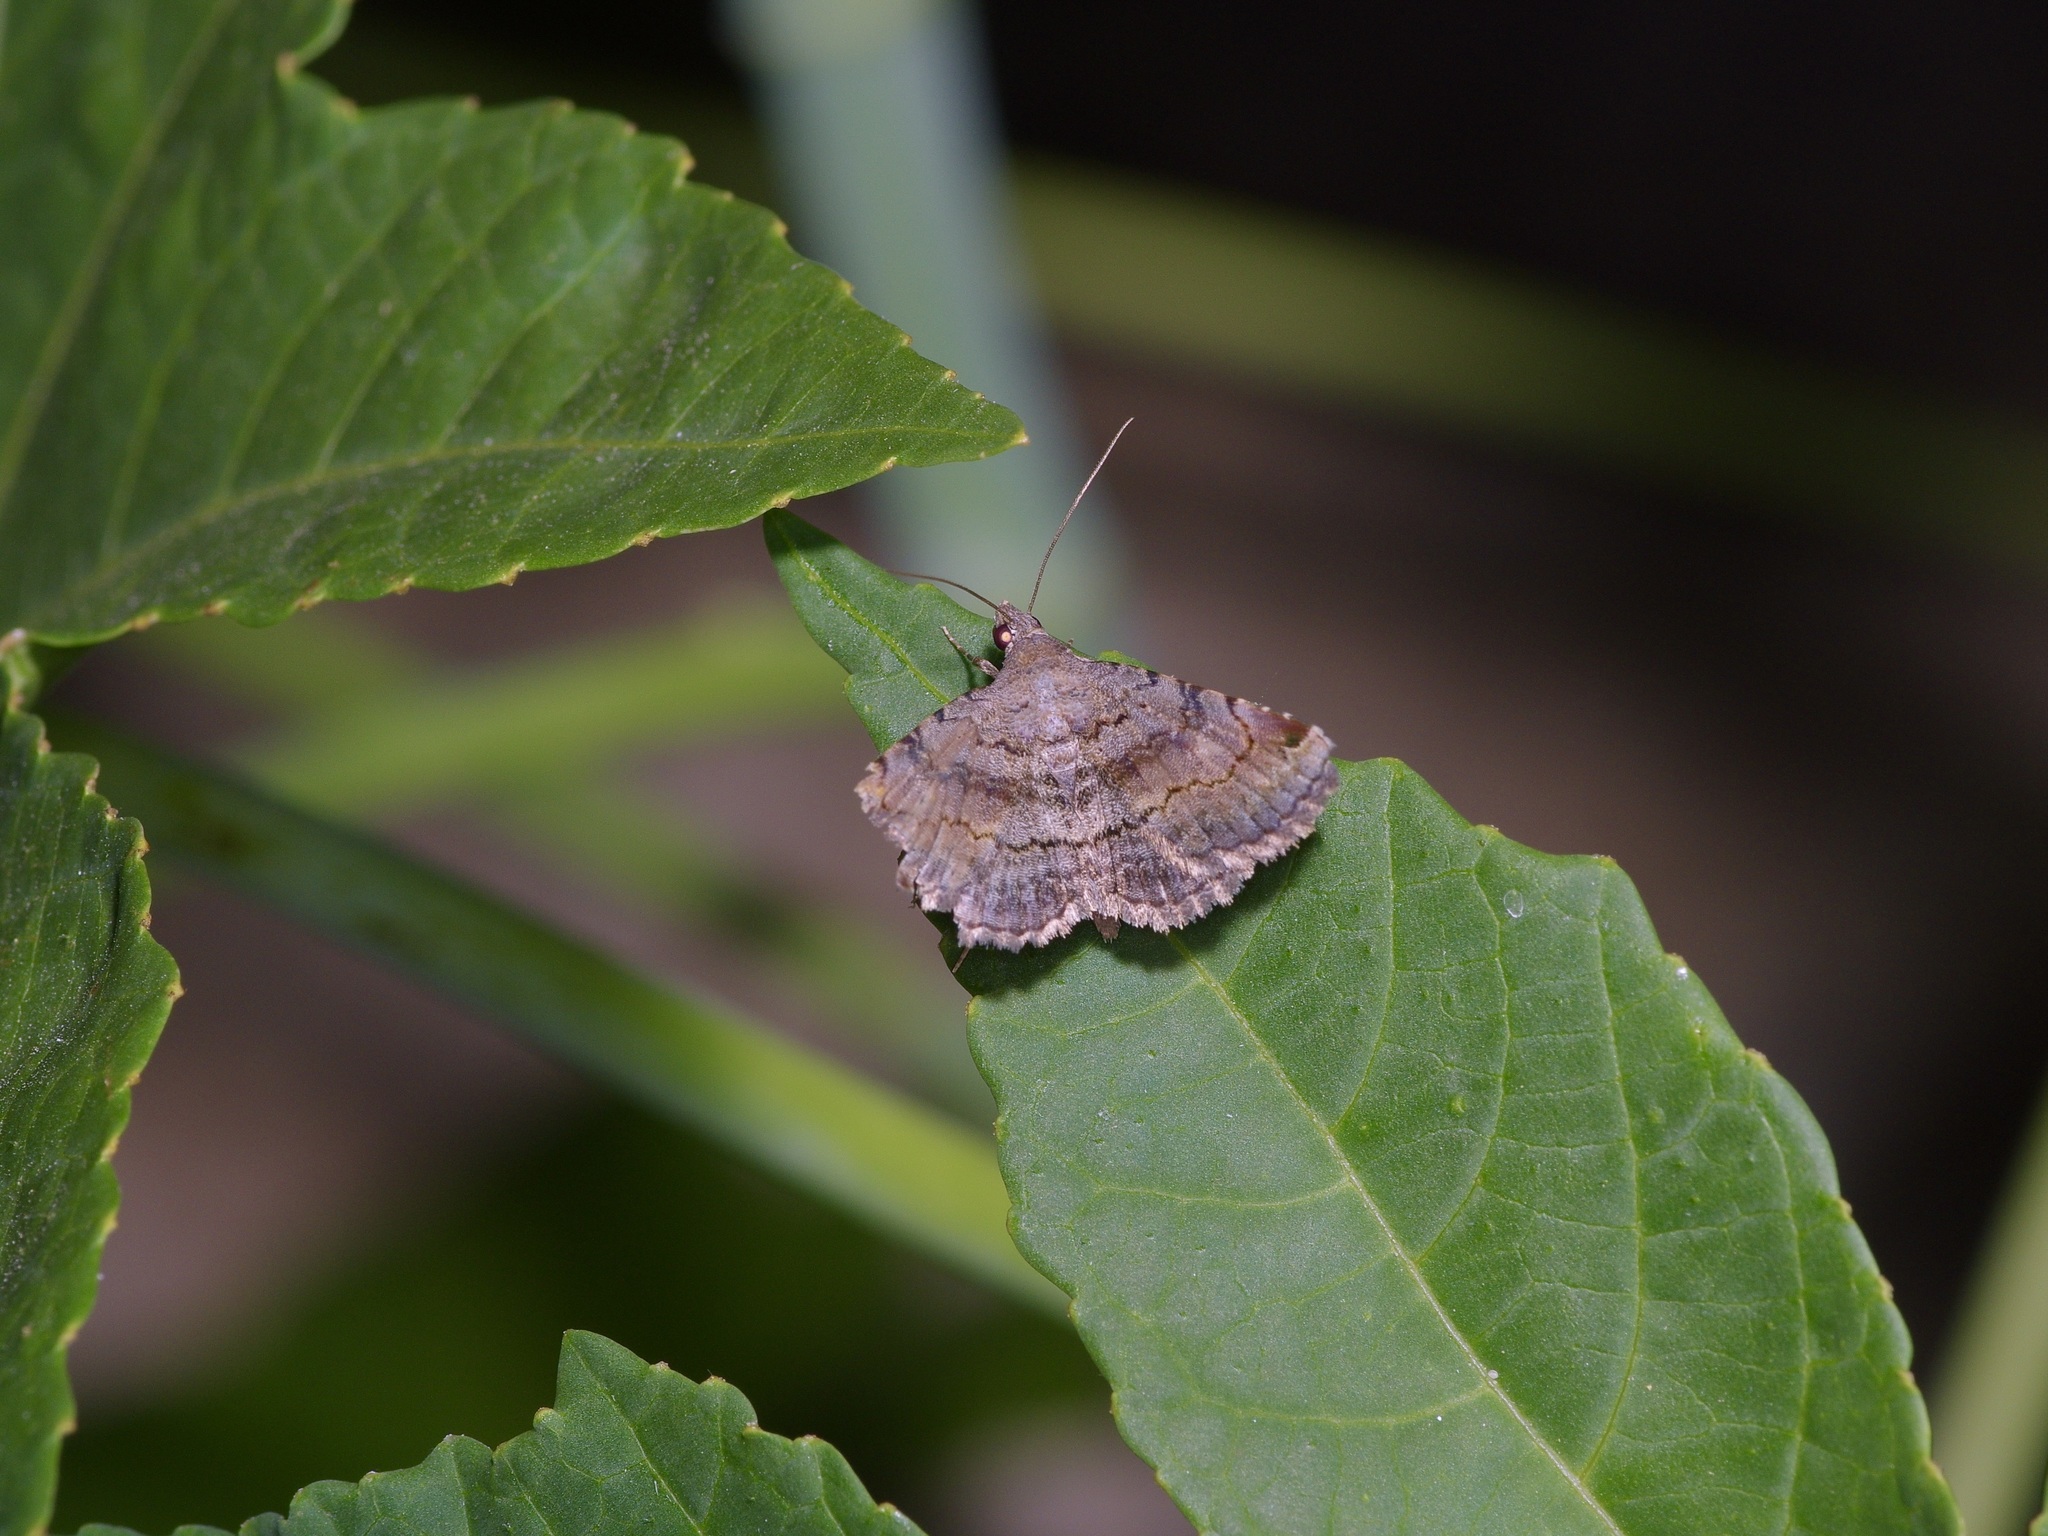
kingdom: Animalia
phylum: Arthropoda
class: Insecta
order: Lepidoptera
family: Erebidae
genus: Toxonprucha
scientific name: Toxonprucha crudelis
